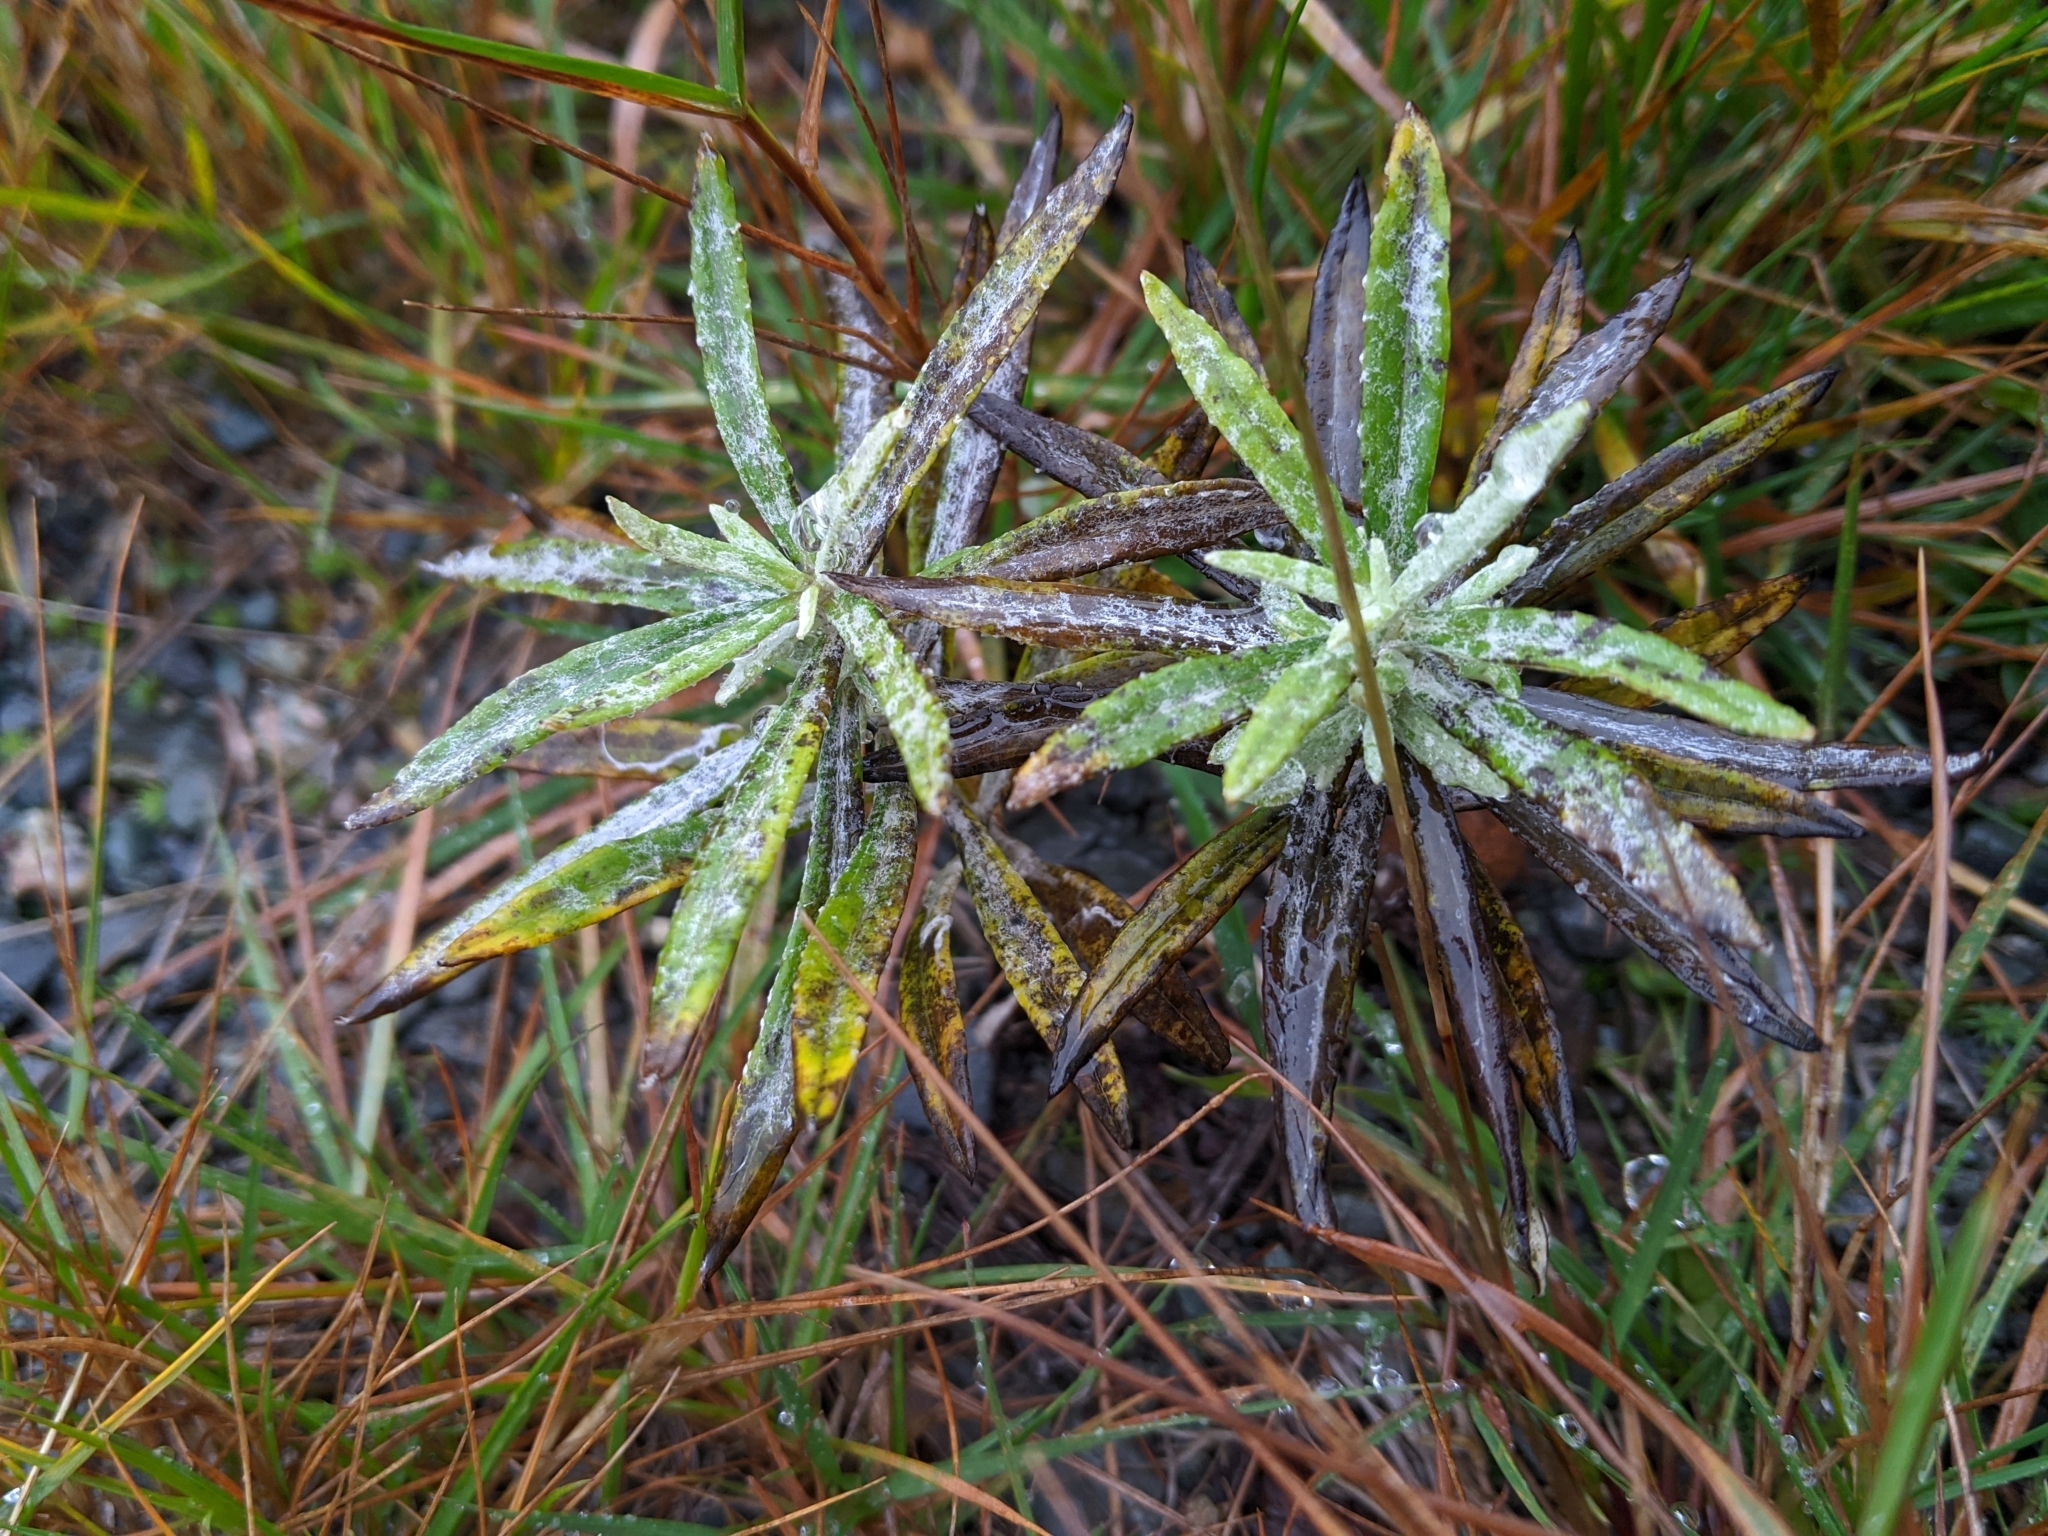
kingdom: Plantae
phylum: Tracheophyta
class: Magnoliopsida
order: Asterales
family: Asteraceae
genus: Anaphalis
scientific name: Anaphalis margaritacea
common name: Pearly everlasting
